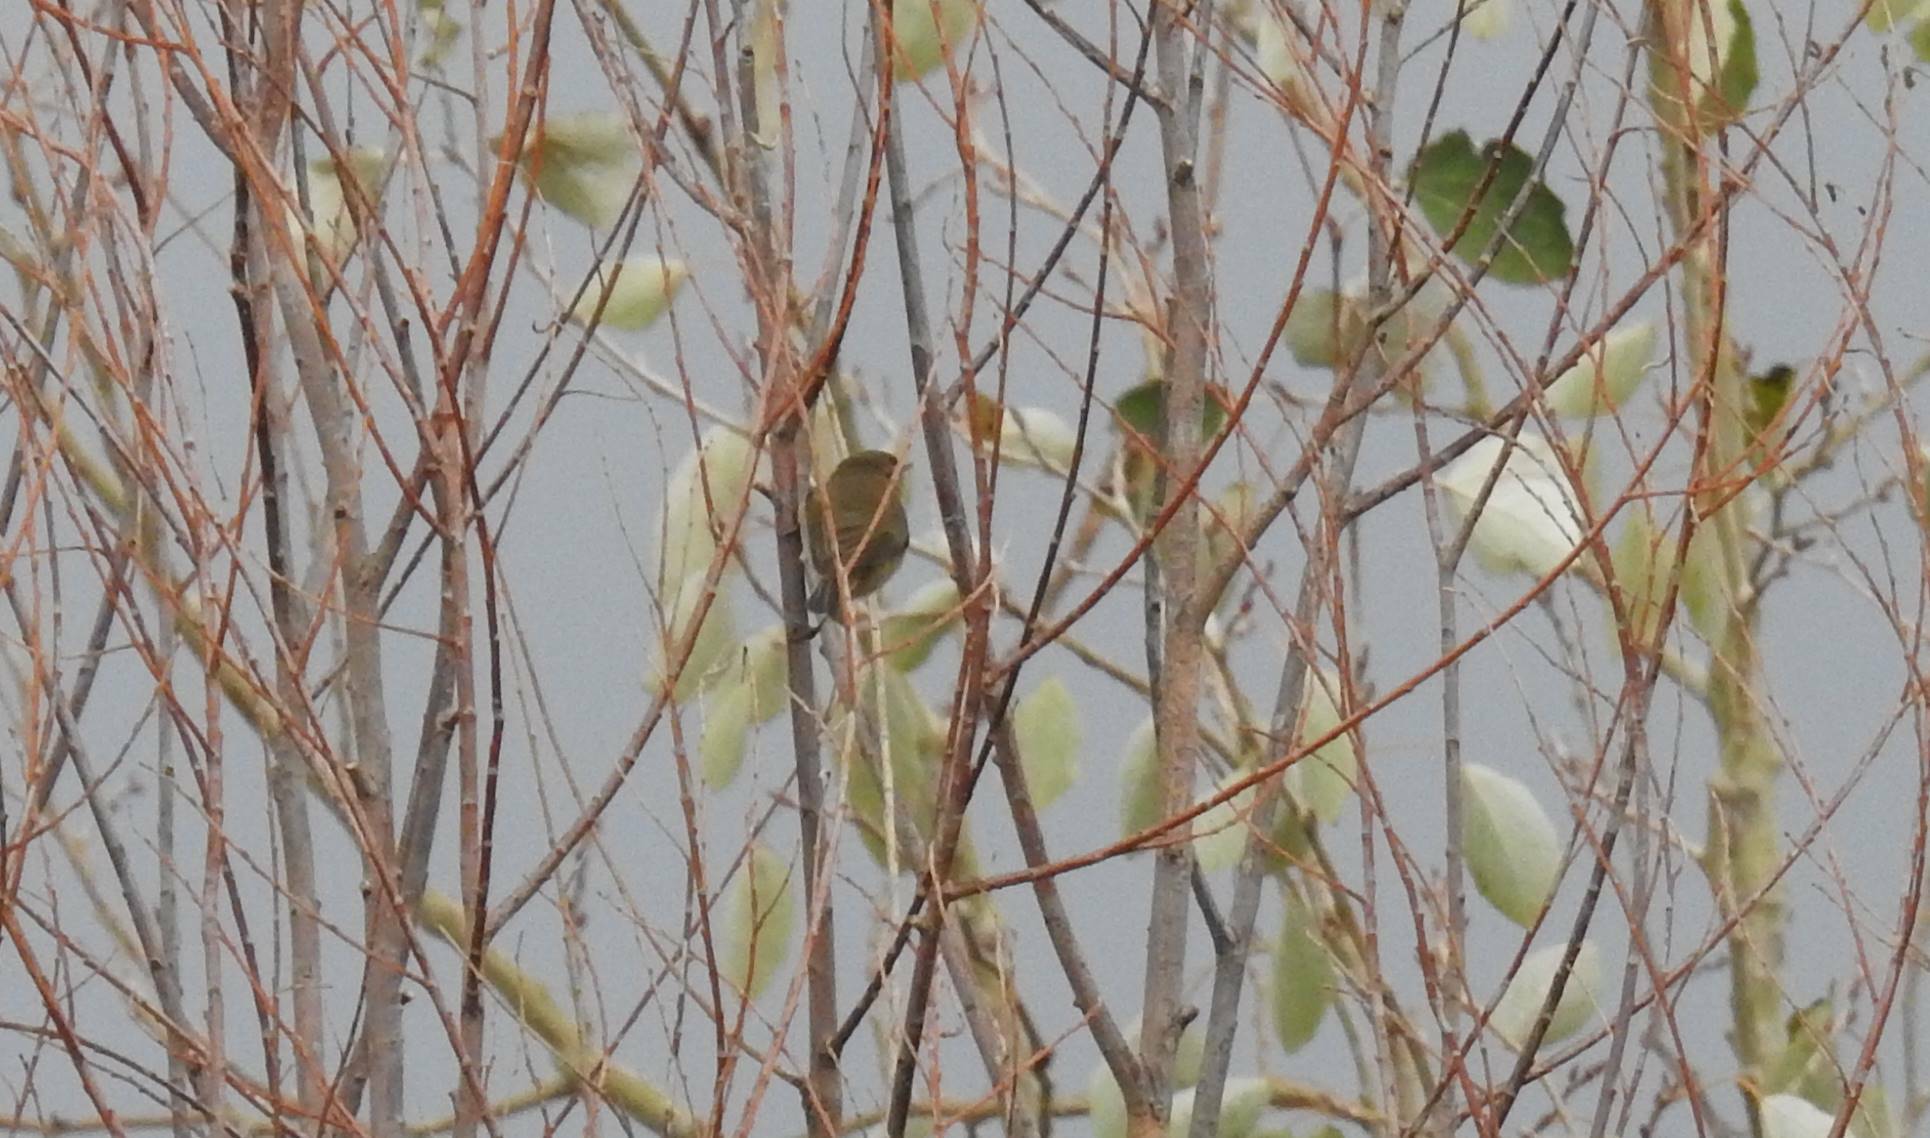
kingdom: Animalia
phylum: Chordata
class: Aves
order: Passeriformes
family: Phylloscopidae
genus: Phylloscopus
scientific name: Phylloscopus collybita
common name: Common chiffchaff
